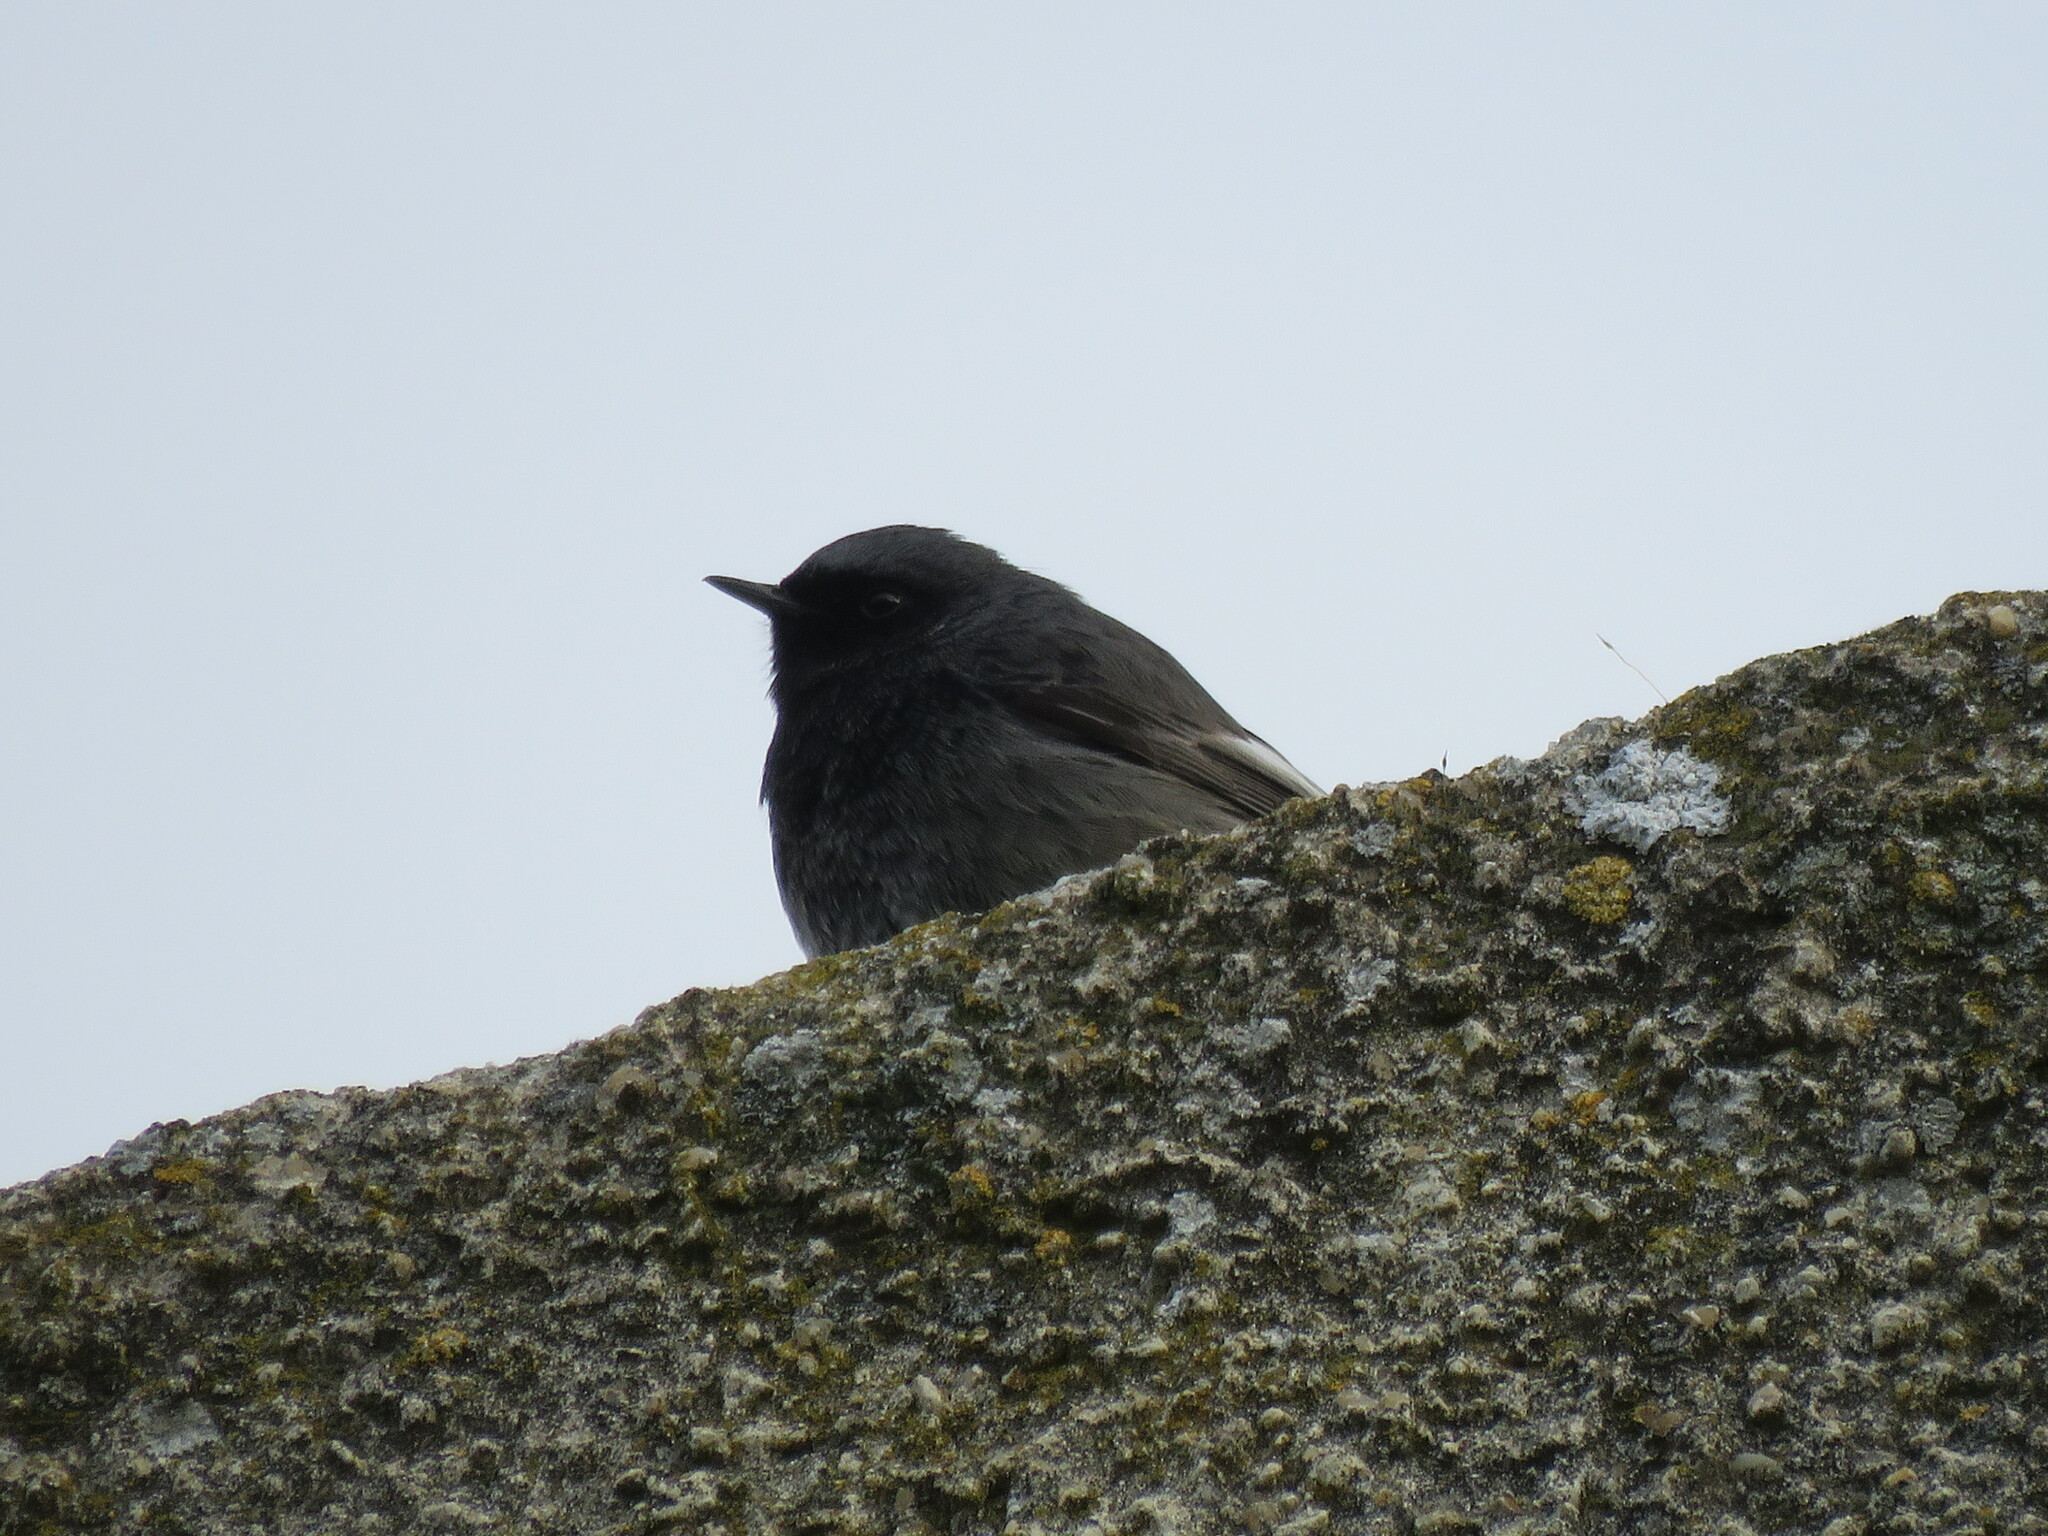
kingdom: Animalia
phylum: Chordata
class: Aves
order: Passeriformes
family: Muscicapidae
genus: Phoenicurus
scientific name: Phoenicurus ochruros
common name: Black redstart
